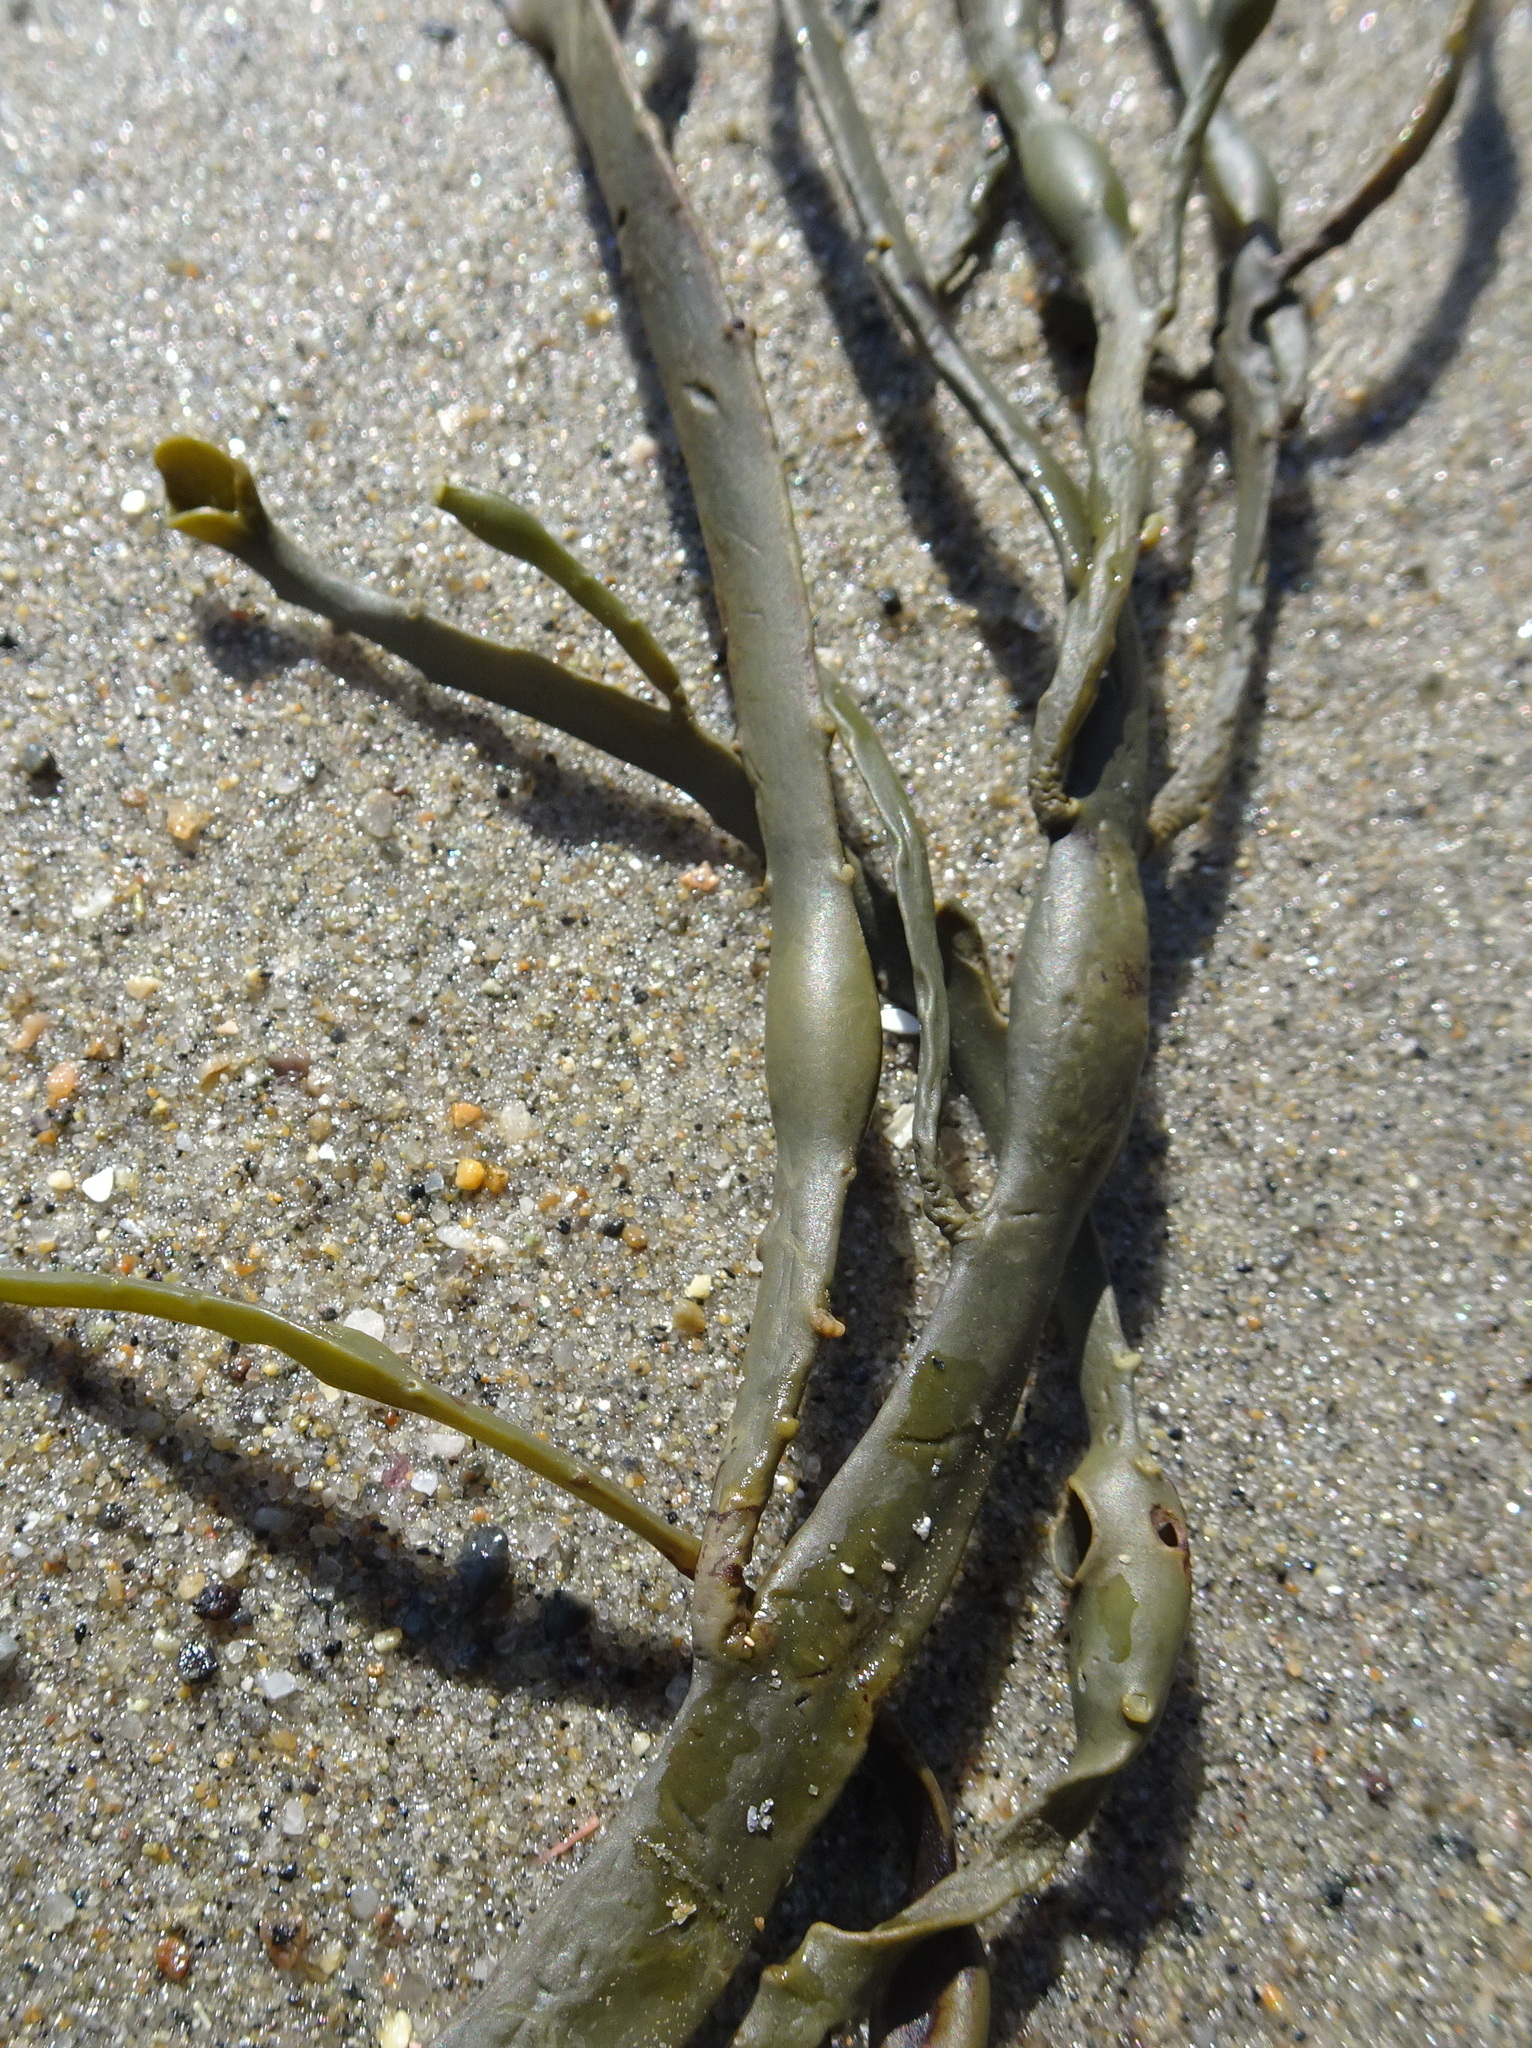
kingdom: Chromista
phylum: Ochrophyta
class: Phaeophyceae
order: Fucales
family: Fucaceae
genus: Ascophyllum
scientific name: Ascophyllum nodosum
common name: Knotted wrack
